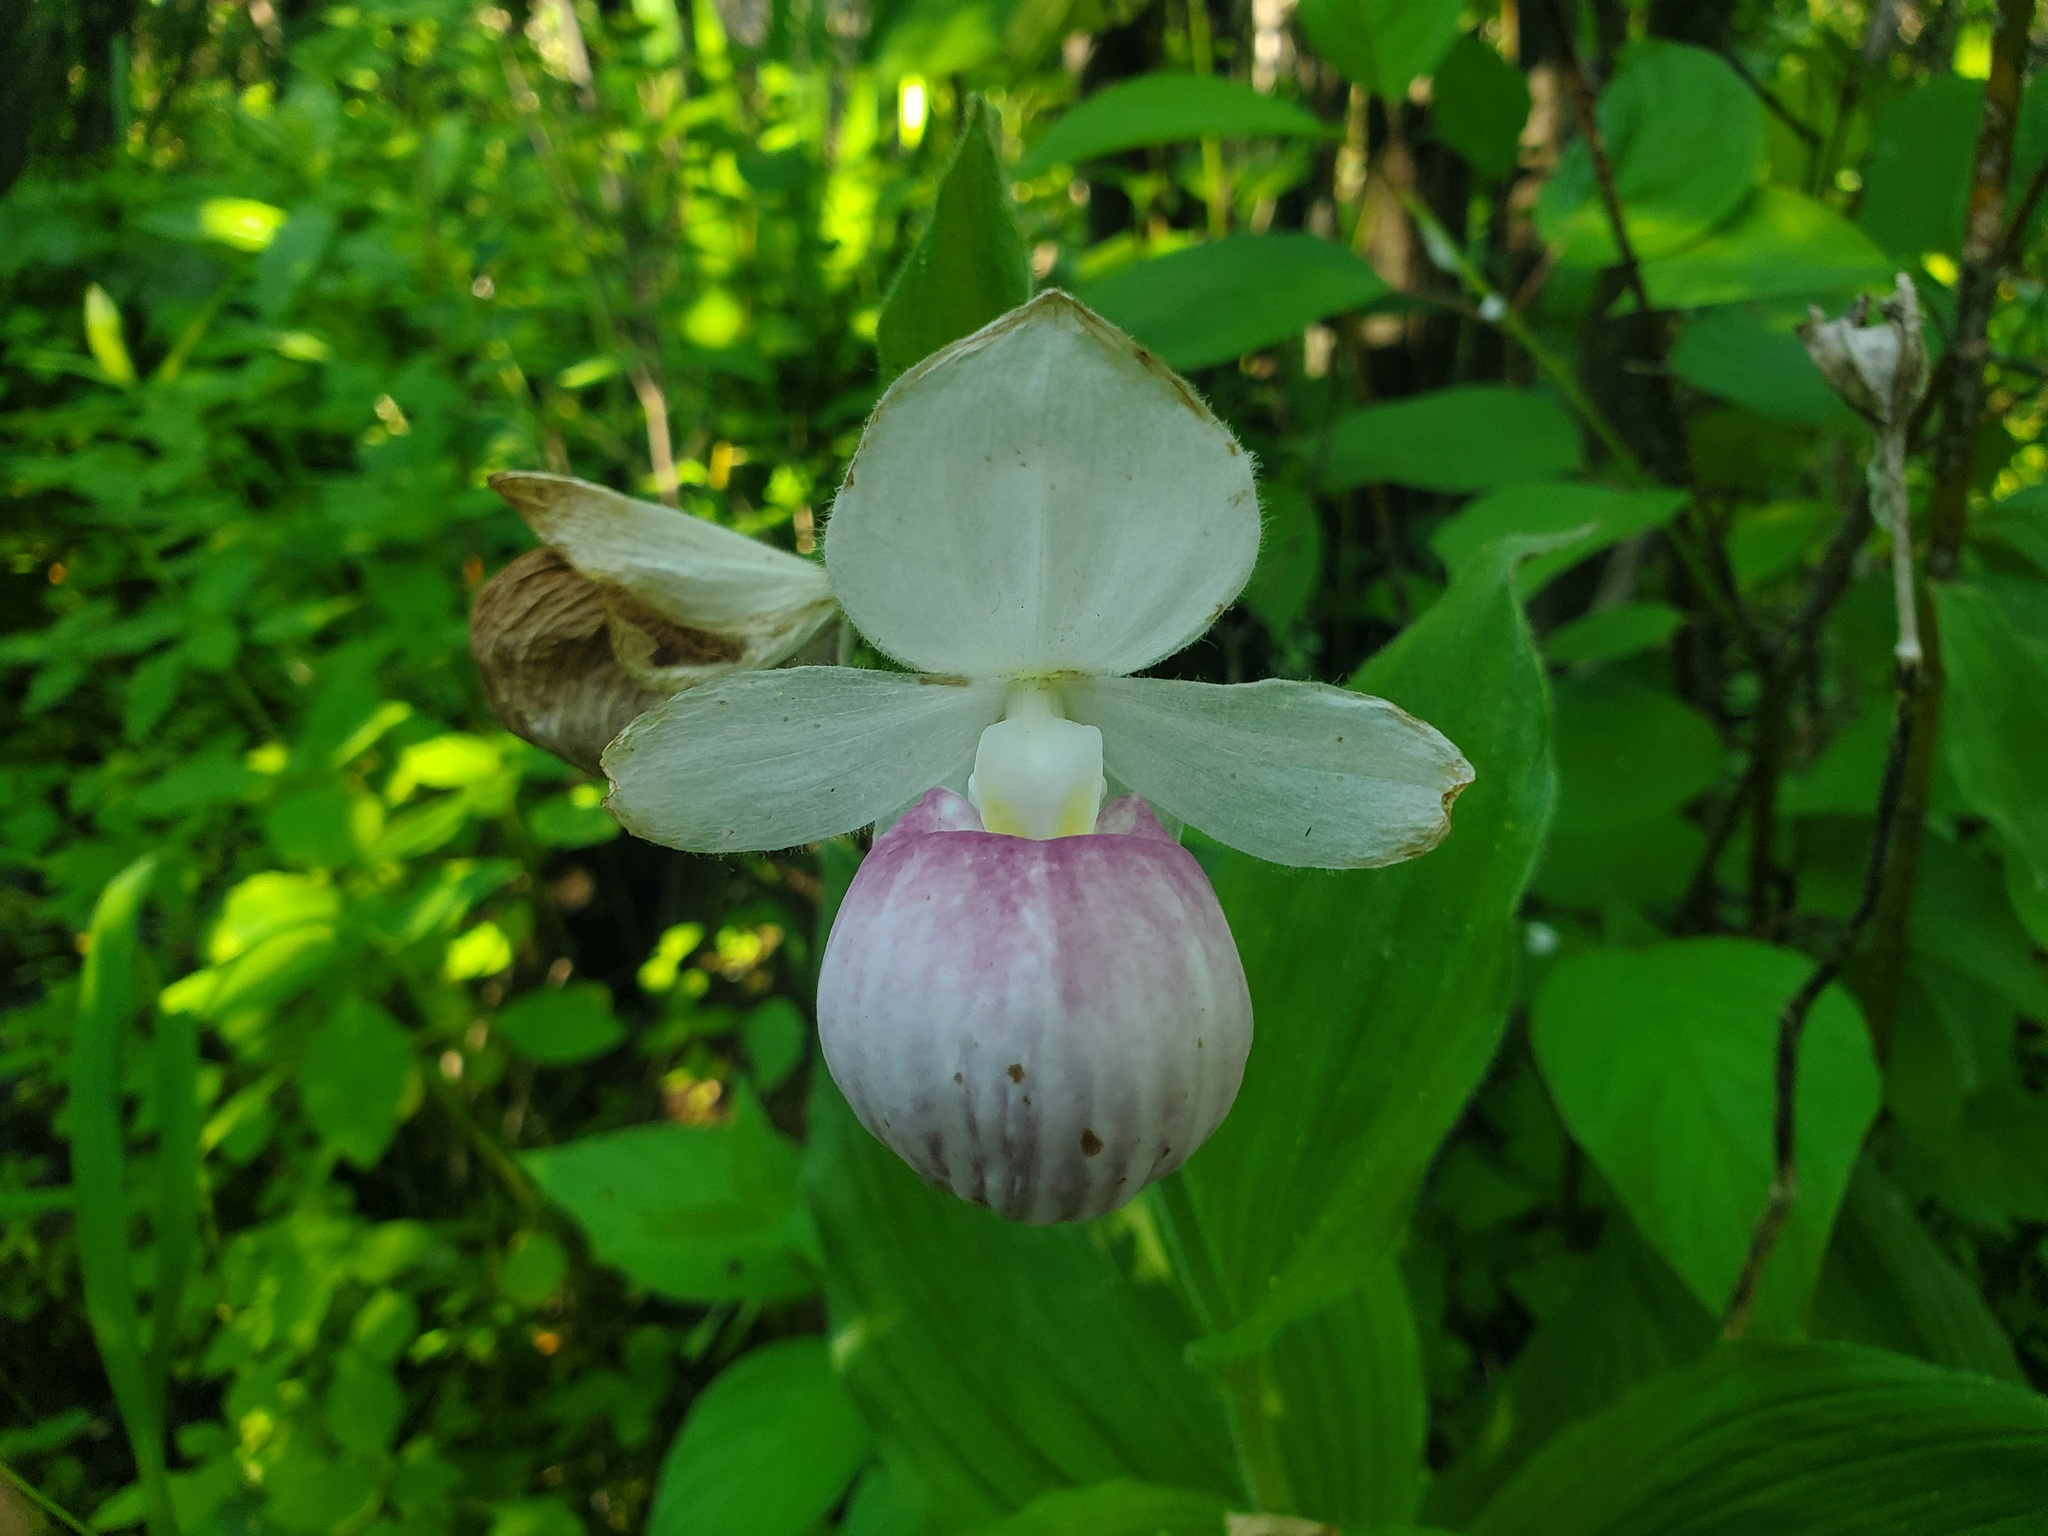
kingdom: Plantae
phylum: Tracheophyta
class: Liliopsida
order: Asparagales
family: Orchidaceae
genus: Cypripedium
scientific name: Cypripedium reginae
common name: Queen lady's-slipper
